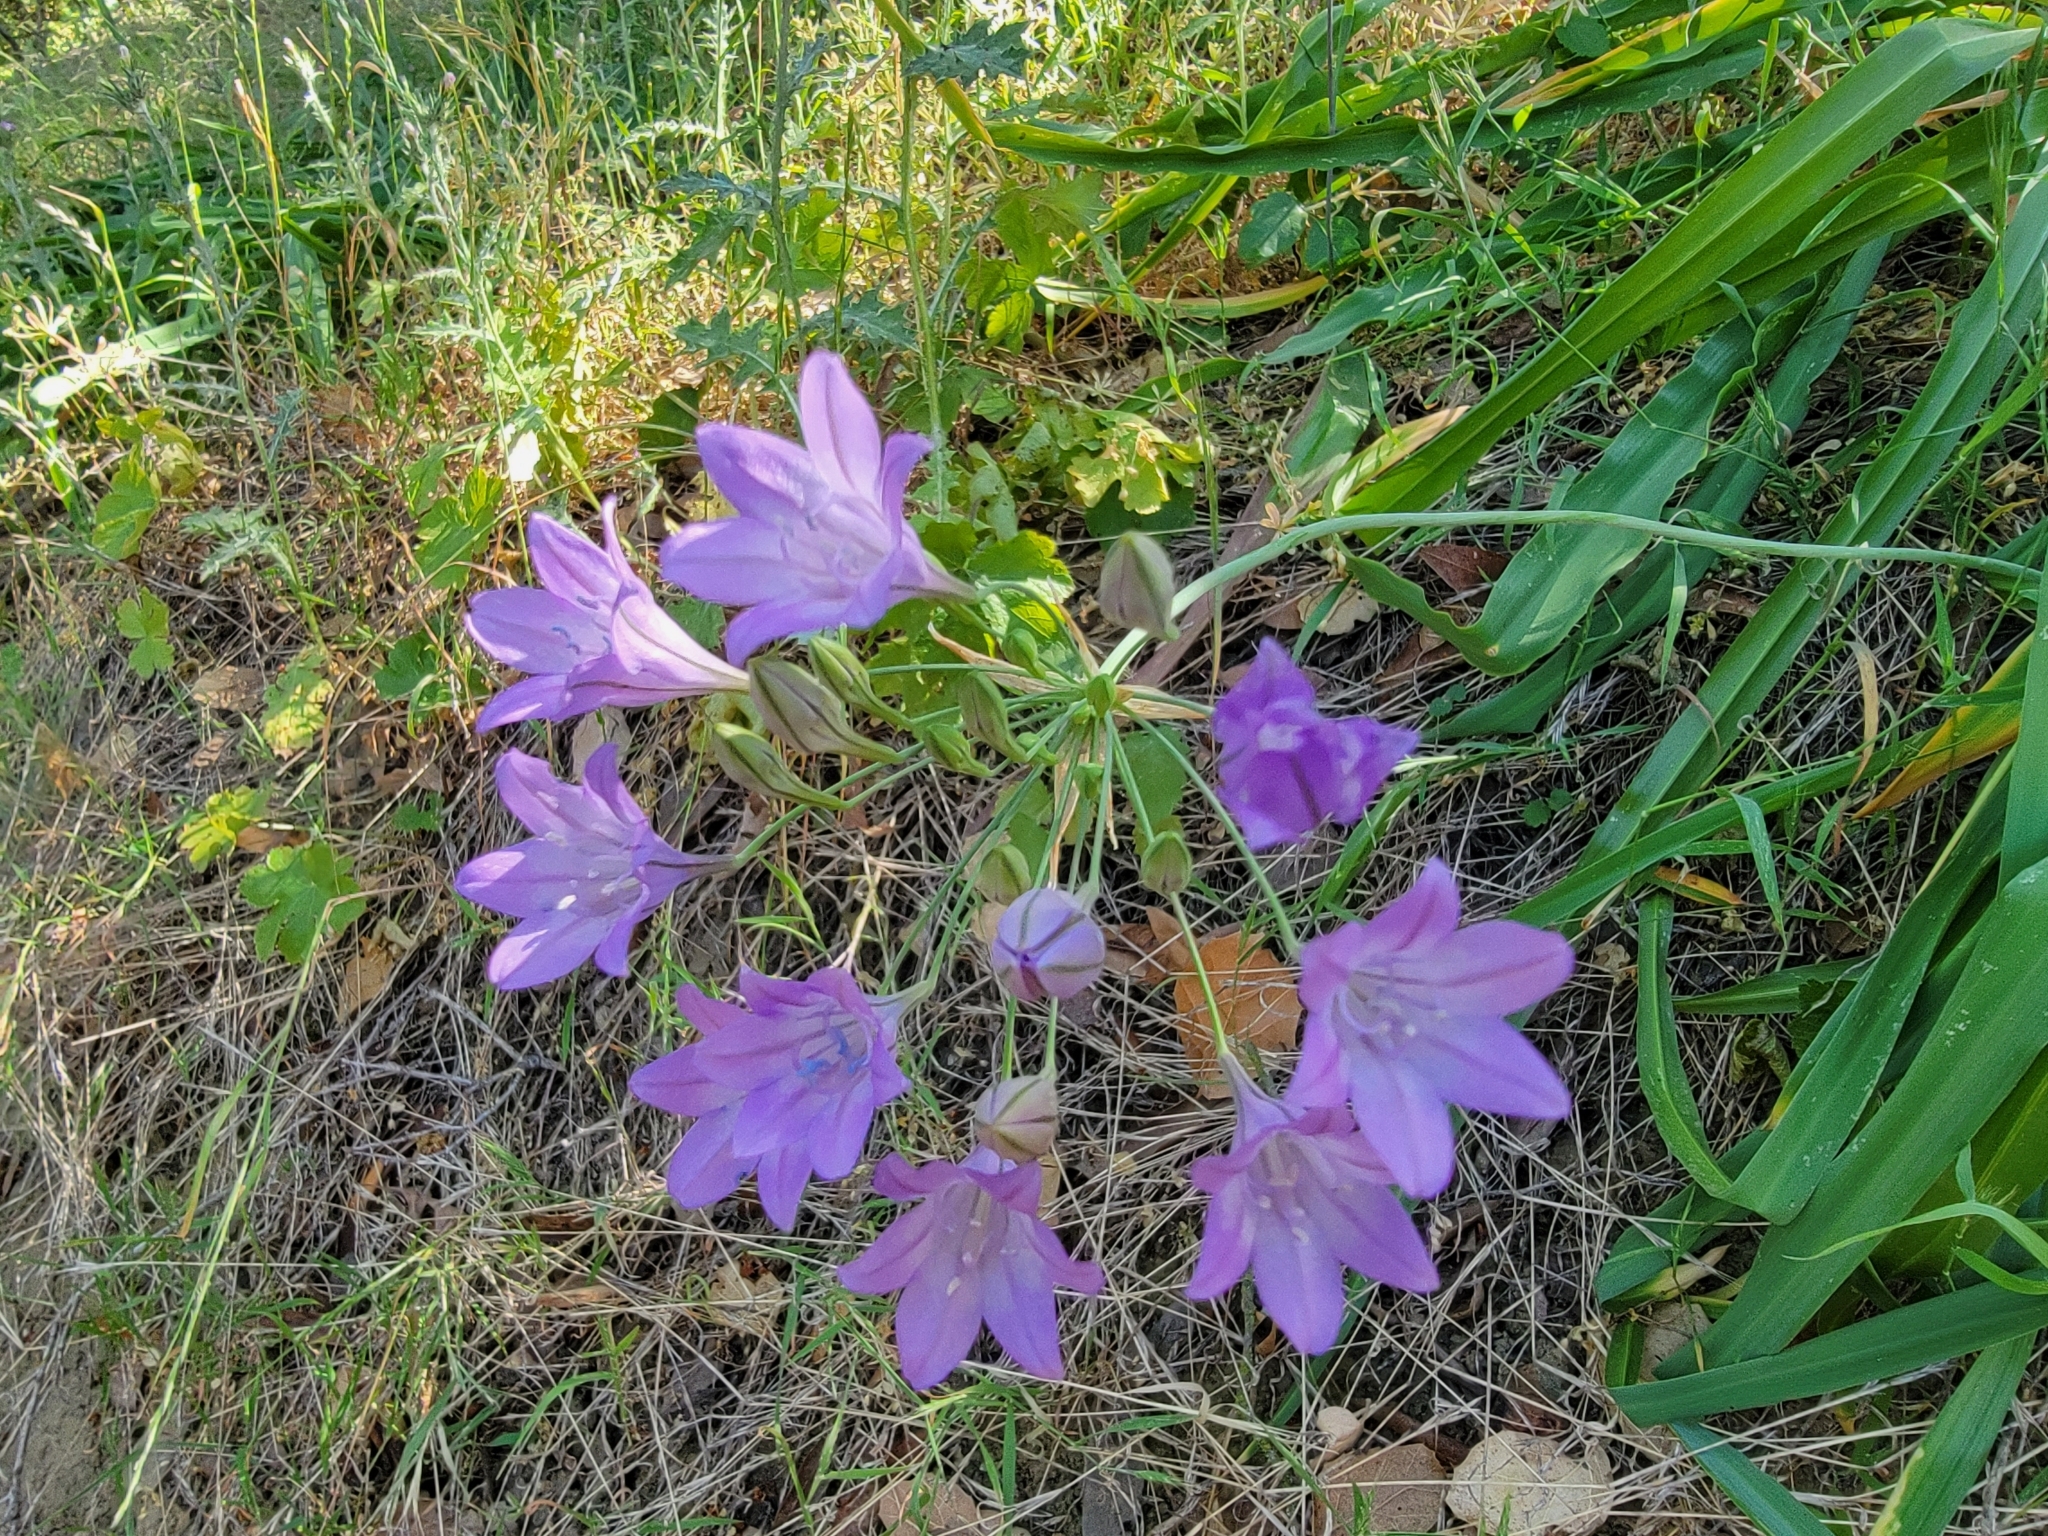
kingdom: Plantae
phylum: Tracheophyta
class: Liliopsida
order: Asparagales
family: Asparagaceae
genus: Triteleia
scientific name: Triteleia laxa
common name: Triplet-lily
